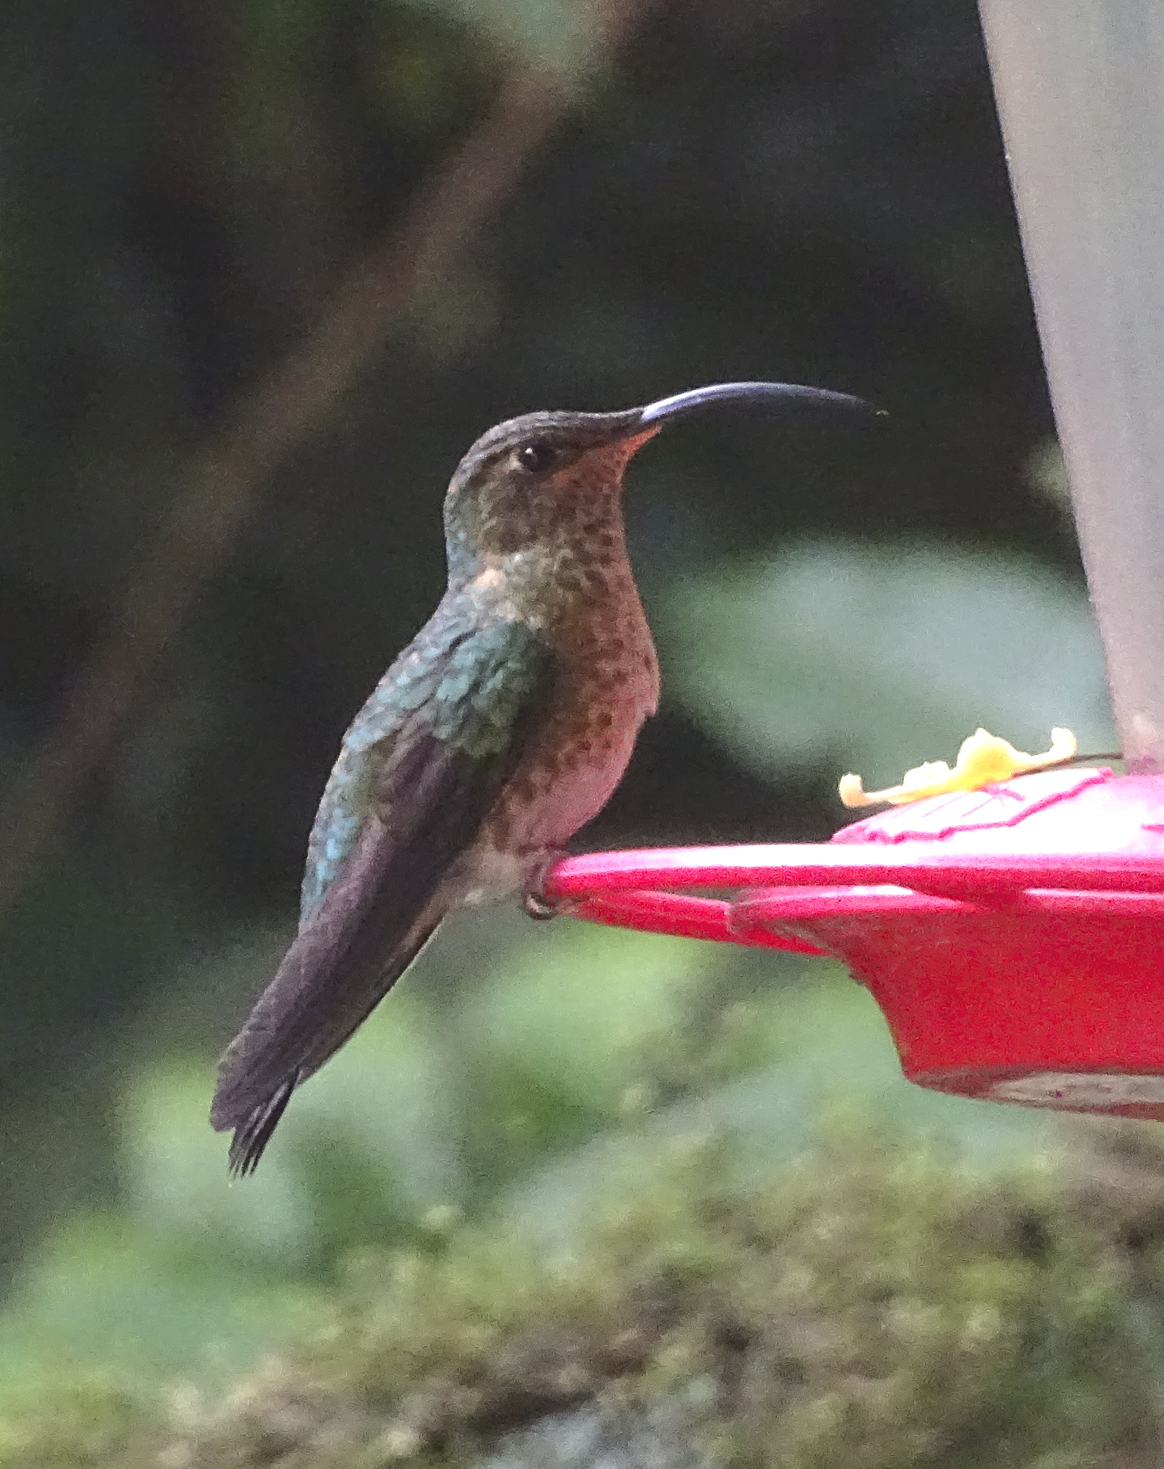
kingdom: Animalia
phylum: Chordata
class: Aves
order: Apodiformes
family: Trochilidae
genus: Lafresnaya
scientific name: Lafresnaya lafresnayi
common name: Mountain velvetbreast
